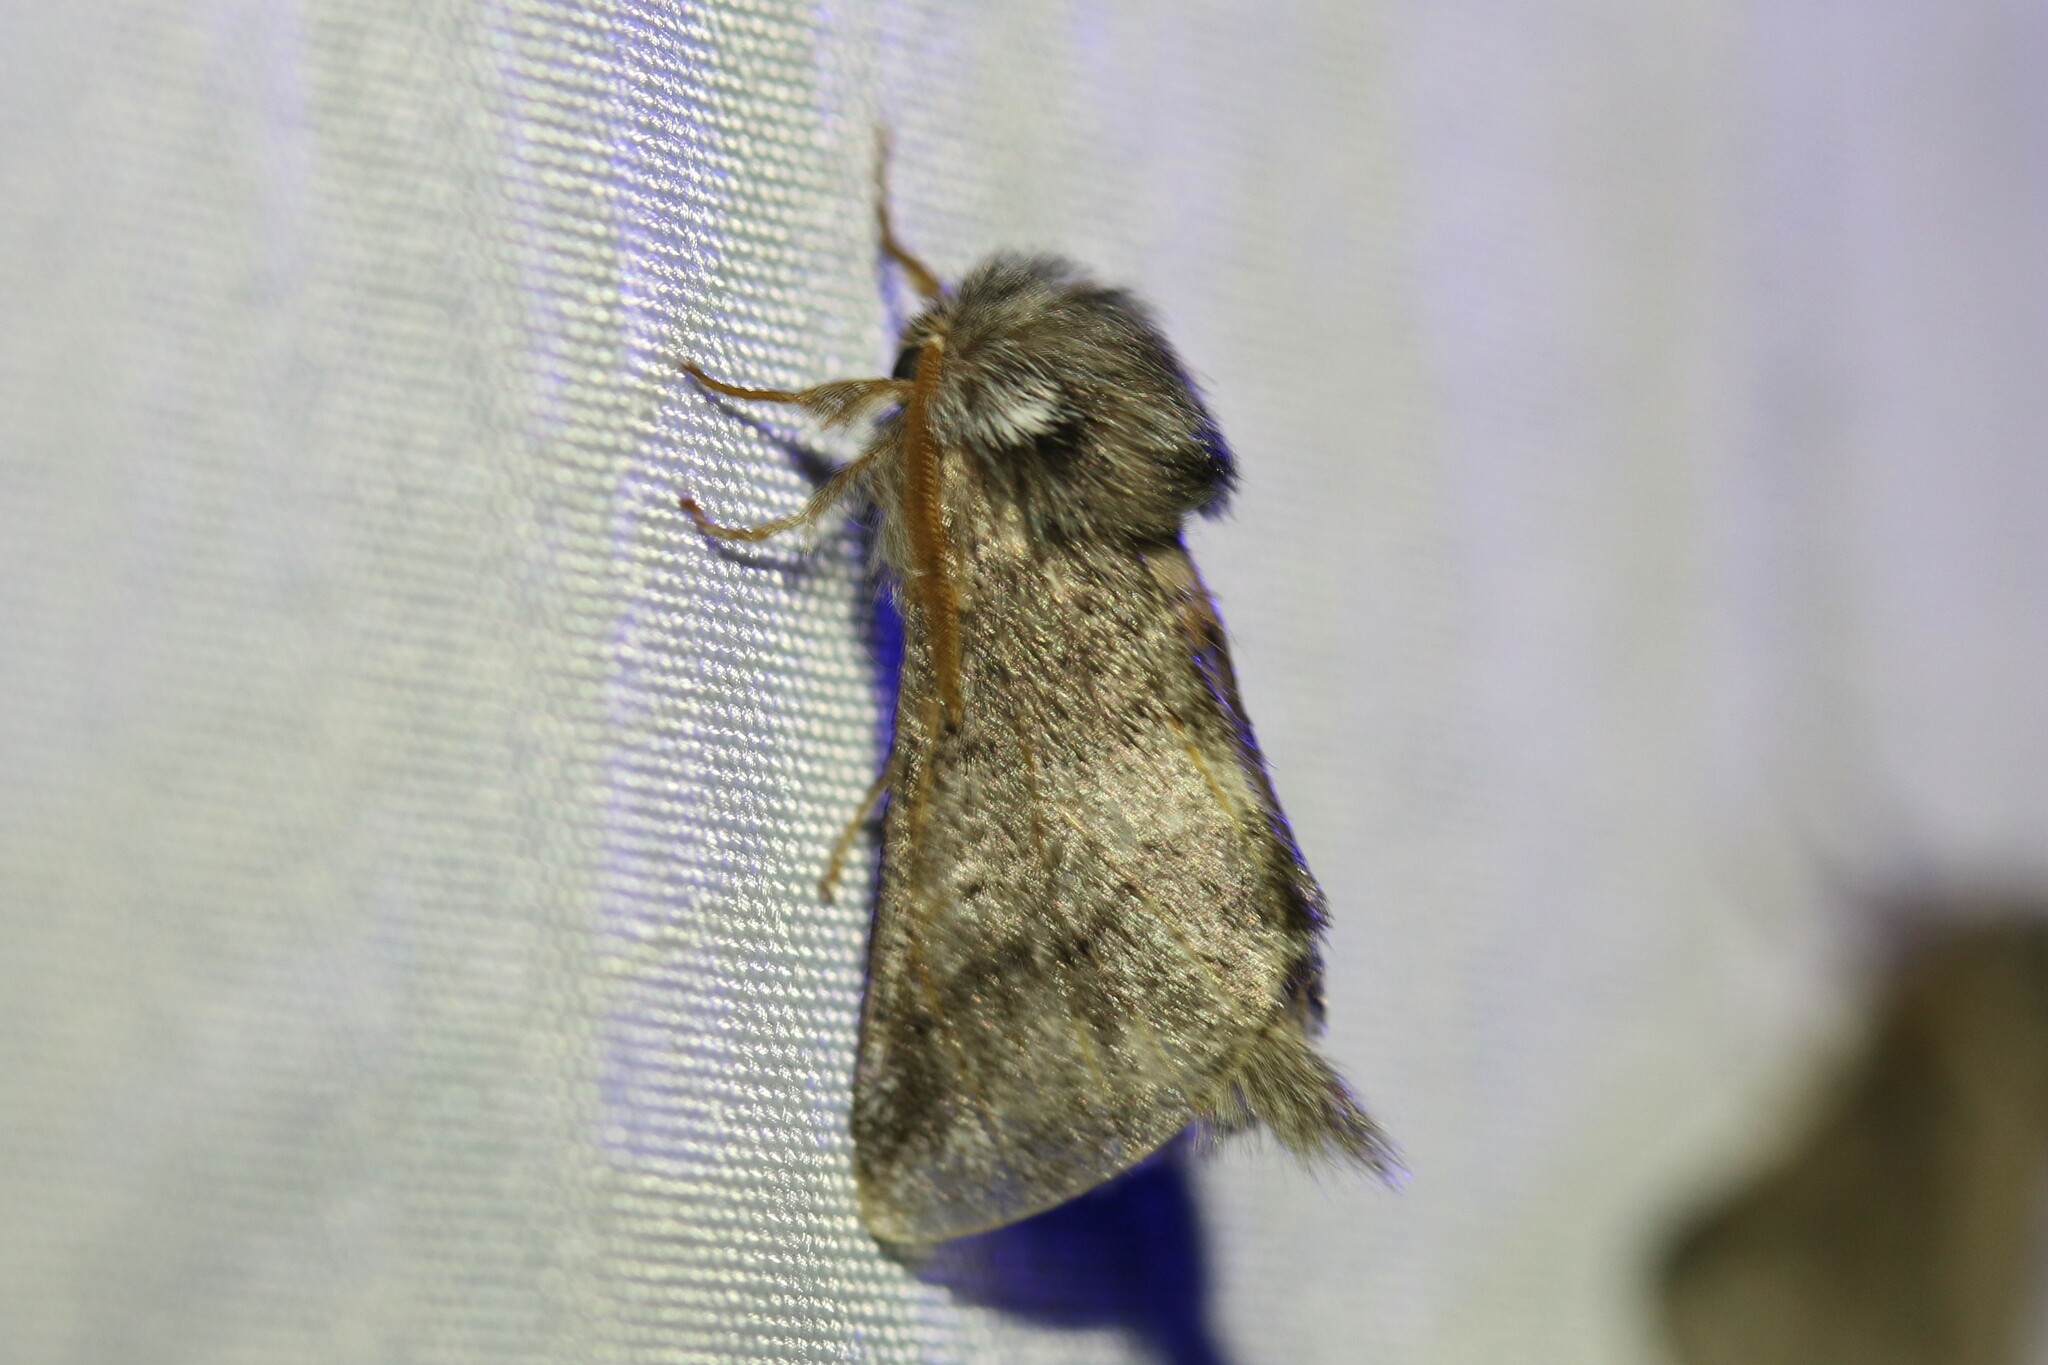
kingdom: Animalia
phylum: Arthropoda
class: Insecta
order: Lepidoptera
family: Notodontidae
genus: Thaumetopoea
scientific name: Thaumetopoea processionea
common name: Oak processionea
